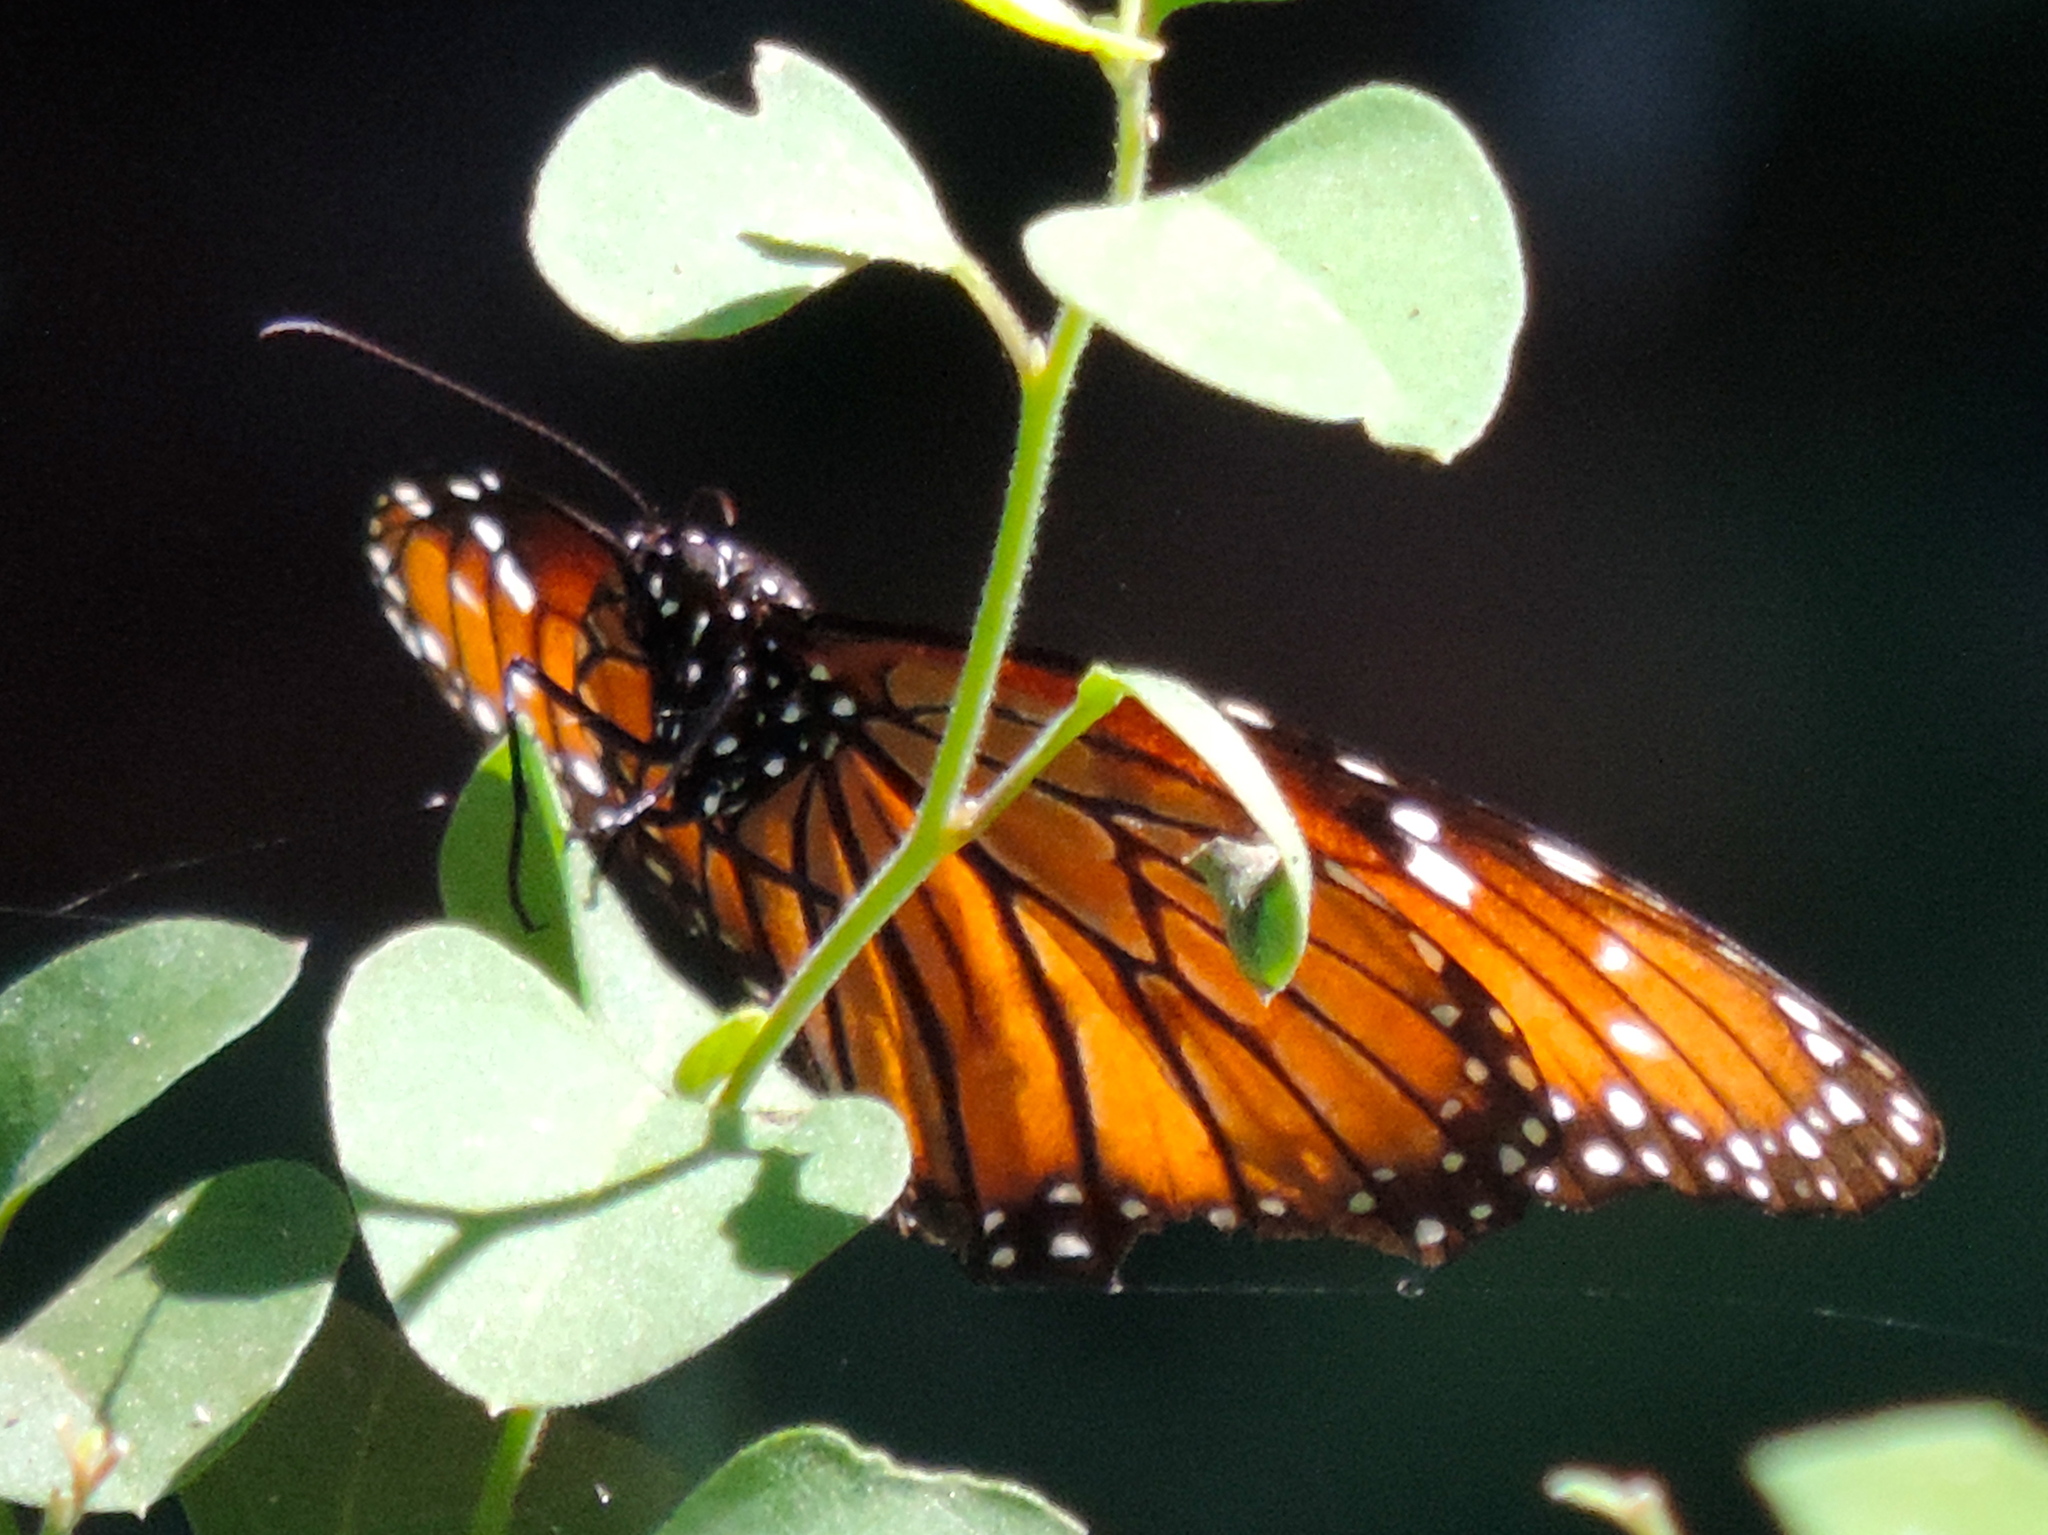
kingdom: Animalia
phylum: Arthropoda
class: Insecta
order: Lepidoptera
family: Nymphalidae
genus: Danaus
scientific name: Danaus eresimus
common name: Soldier
